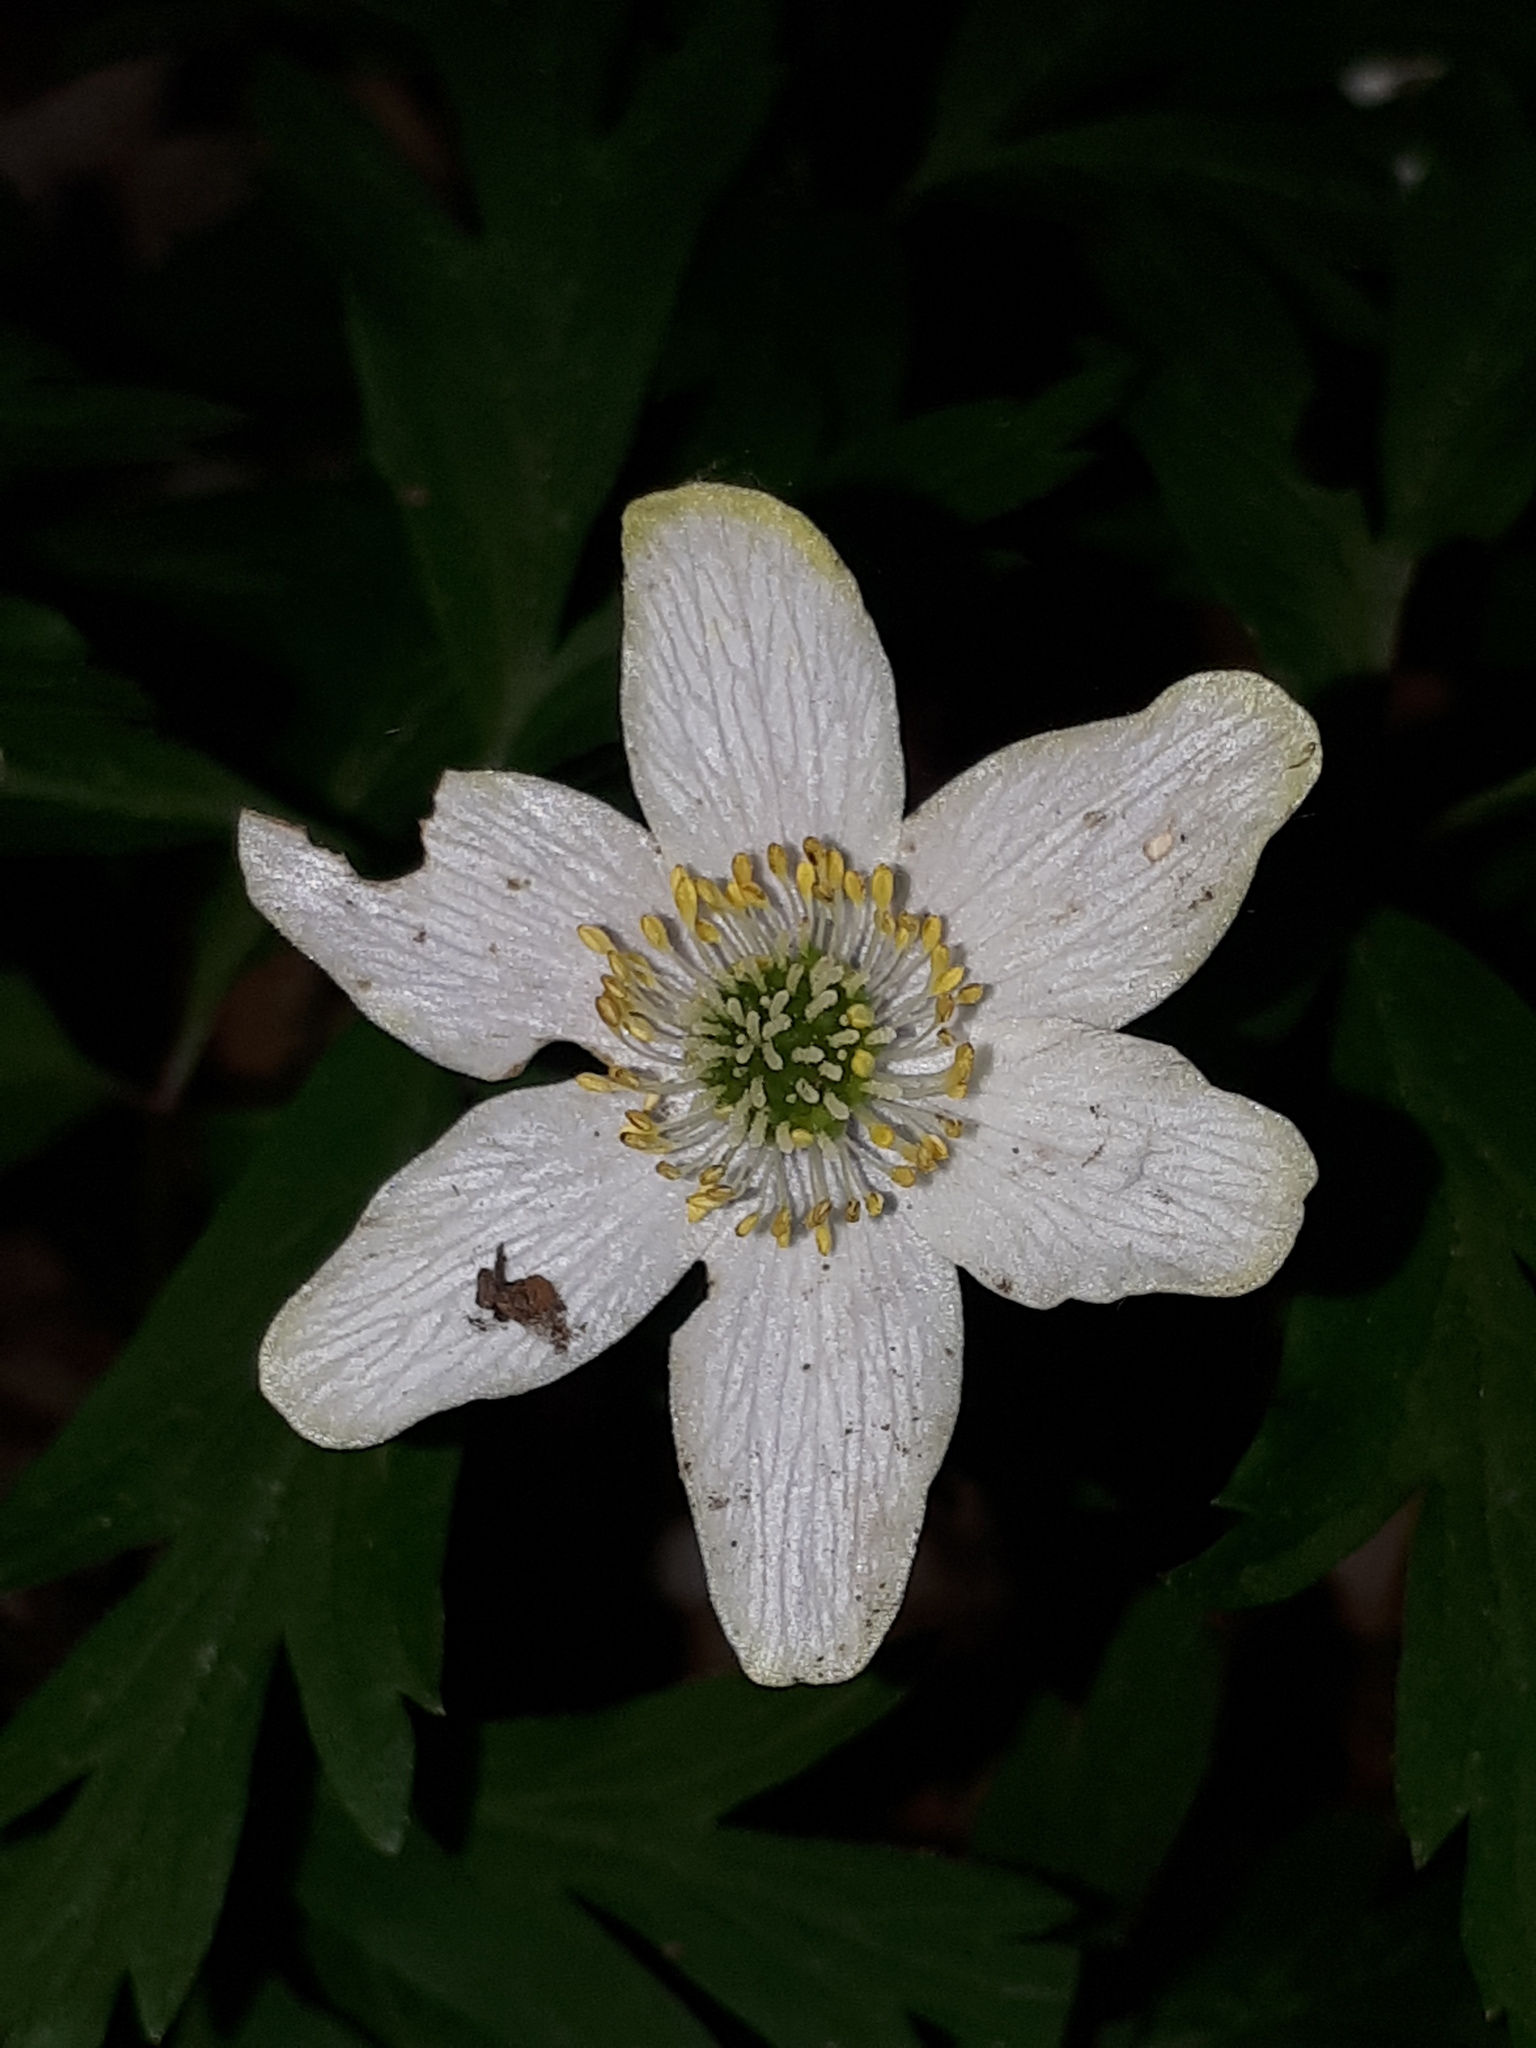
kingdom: Plantae
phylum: Tracheophyta
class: Magnoliopsida
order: Ranunculales
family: Ranunculaceae
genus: Anemone
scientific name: Anemone nemorosa
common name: Wood anemone
